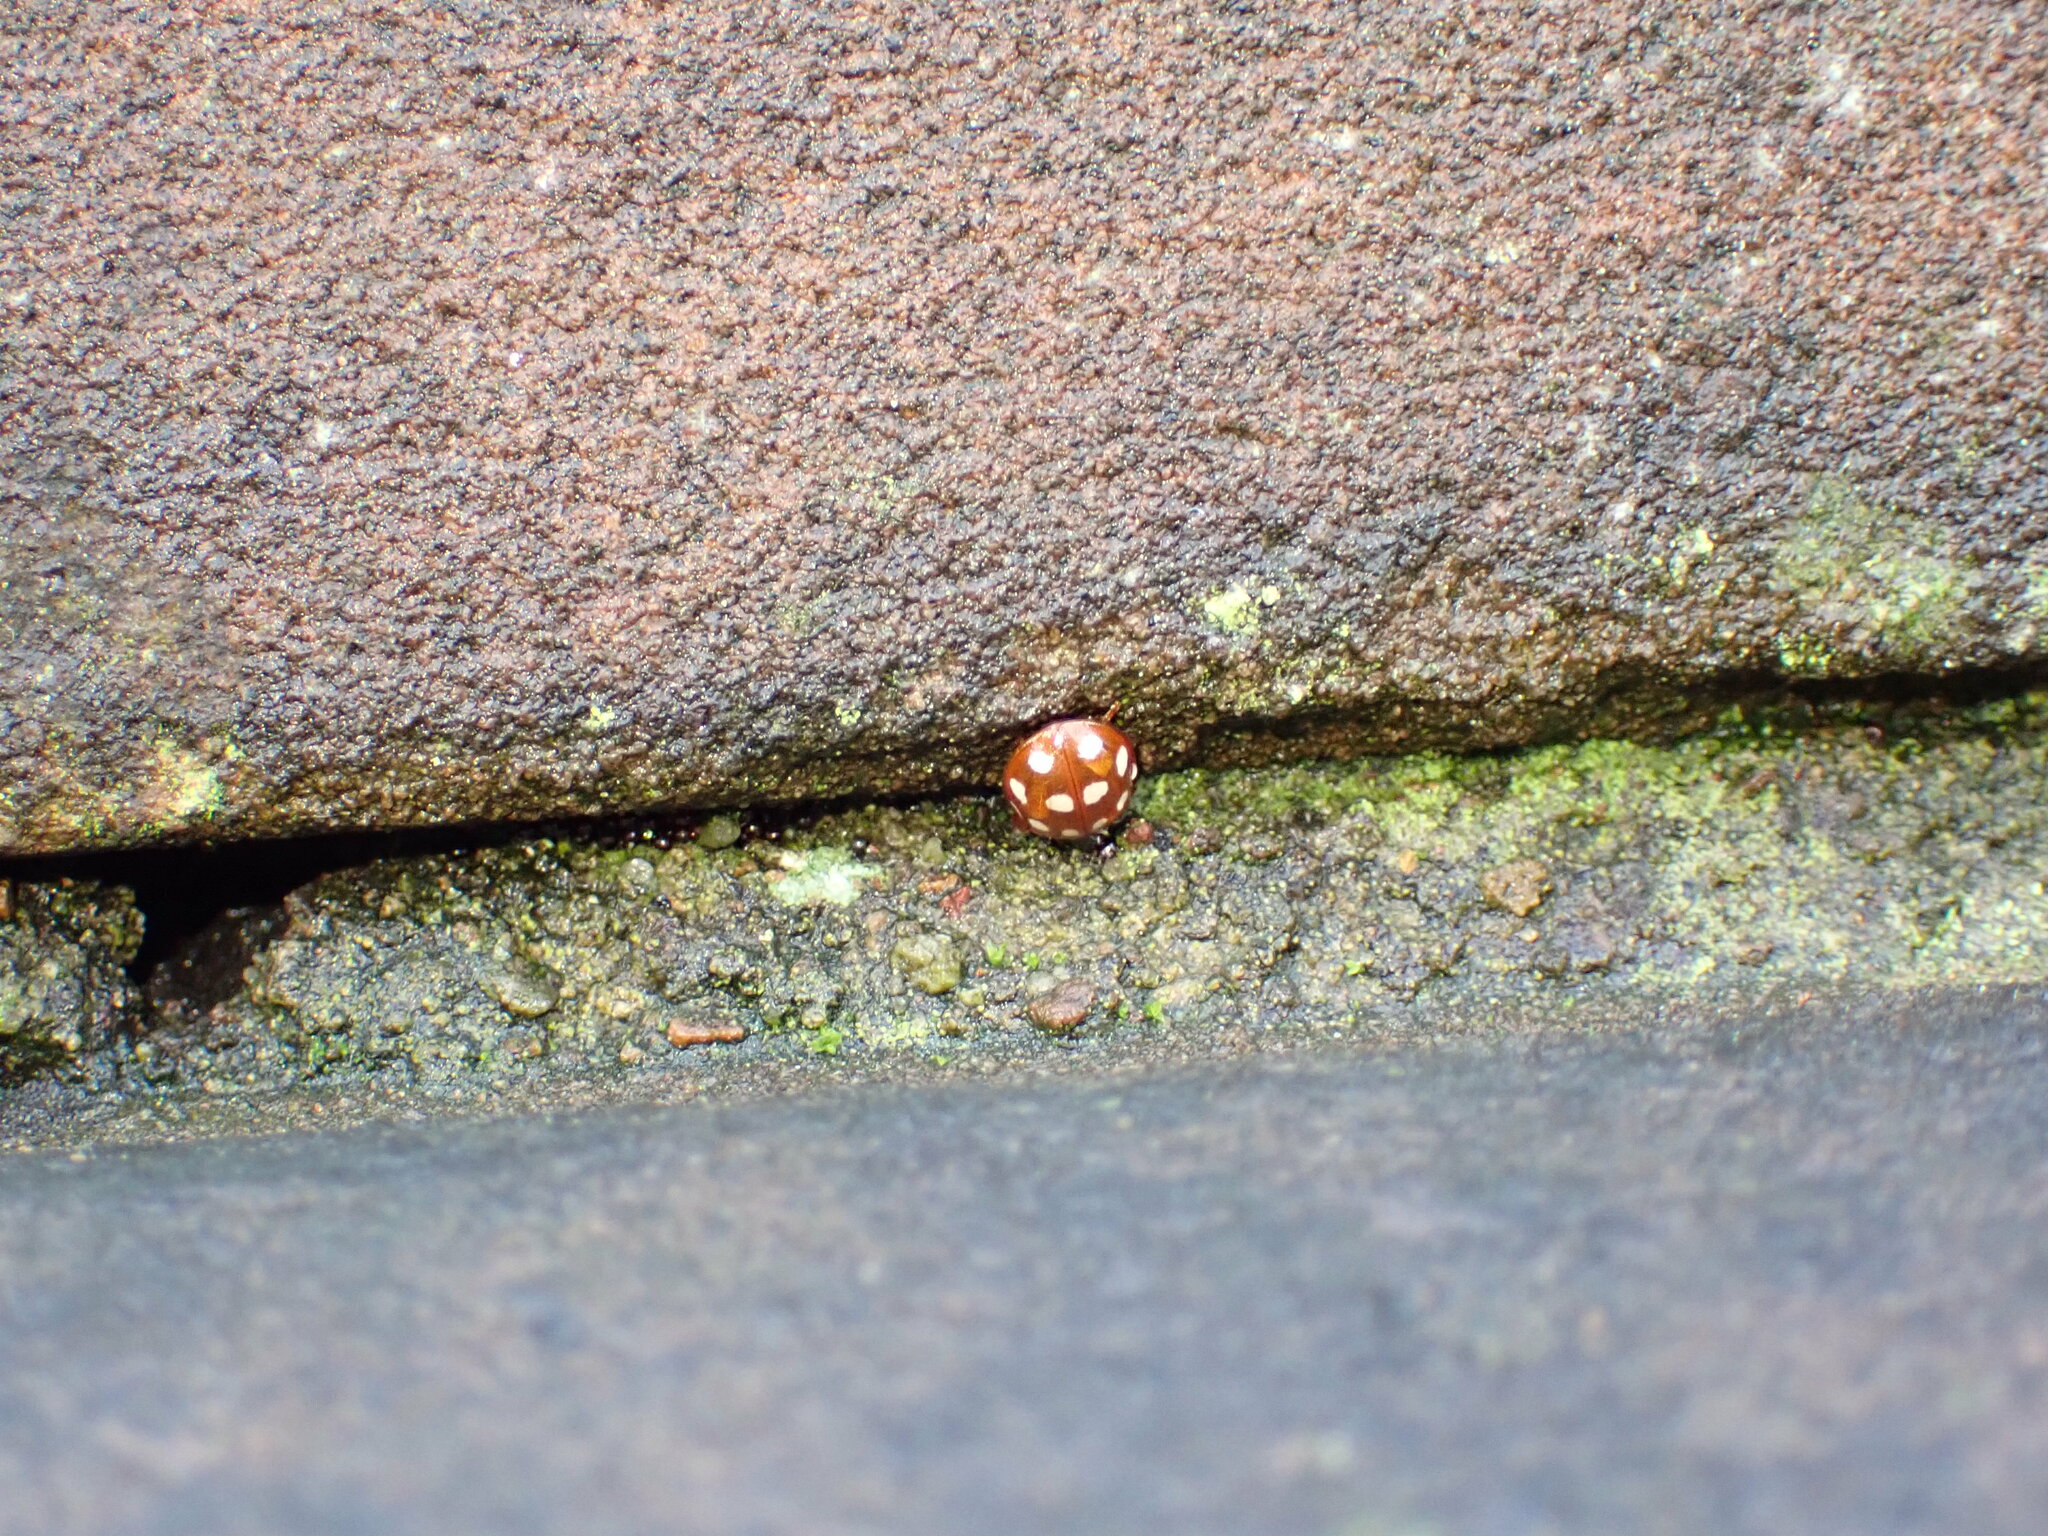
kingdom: Animalia
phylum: Arthropoda
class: Insecta
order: Coleoptera
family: Coccinellidae
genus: Calvia
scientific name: Calvia quatuordecimguttata
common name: Cream-spot ladybird
